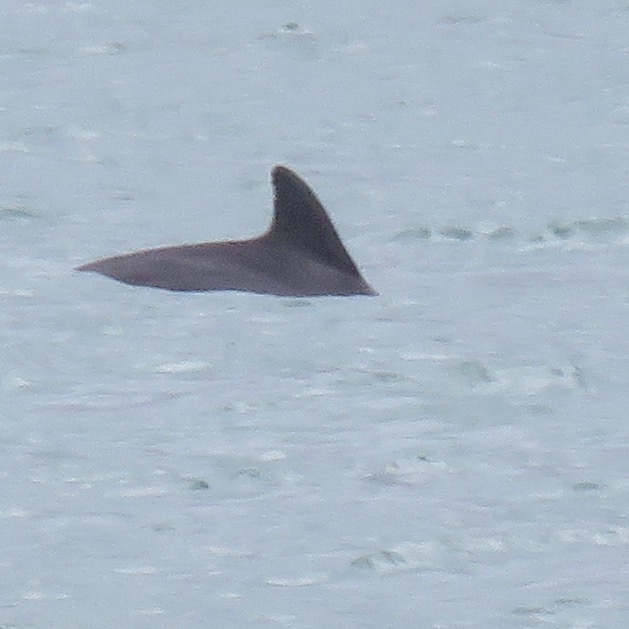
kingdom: Animalia
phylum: Chordata
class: Mammalia
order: Cetacea
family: Delphinidae
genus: Tursiops
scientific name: Tursiops truncatus
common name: Bottlenose dolphin
